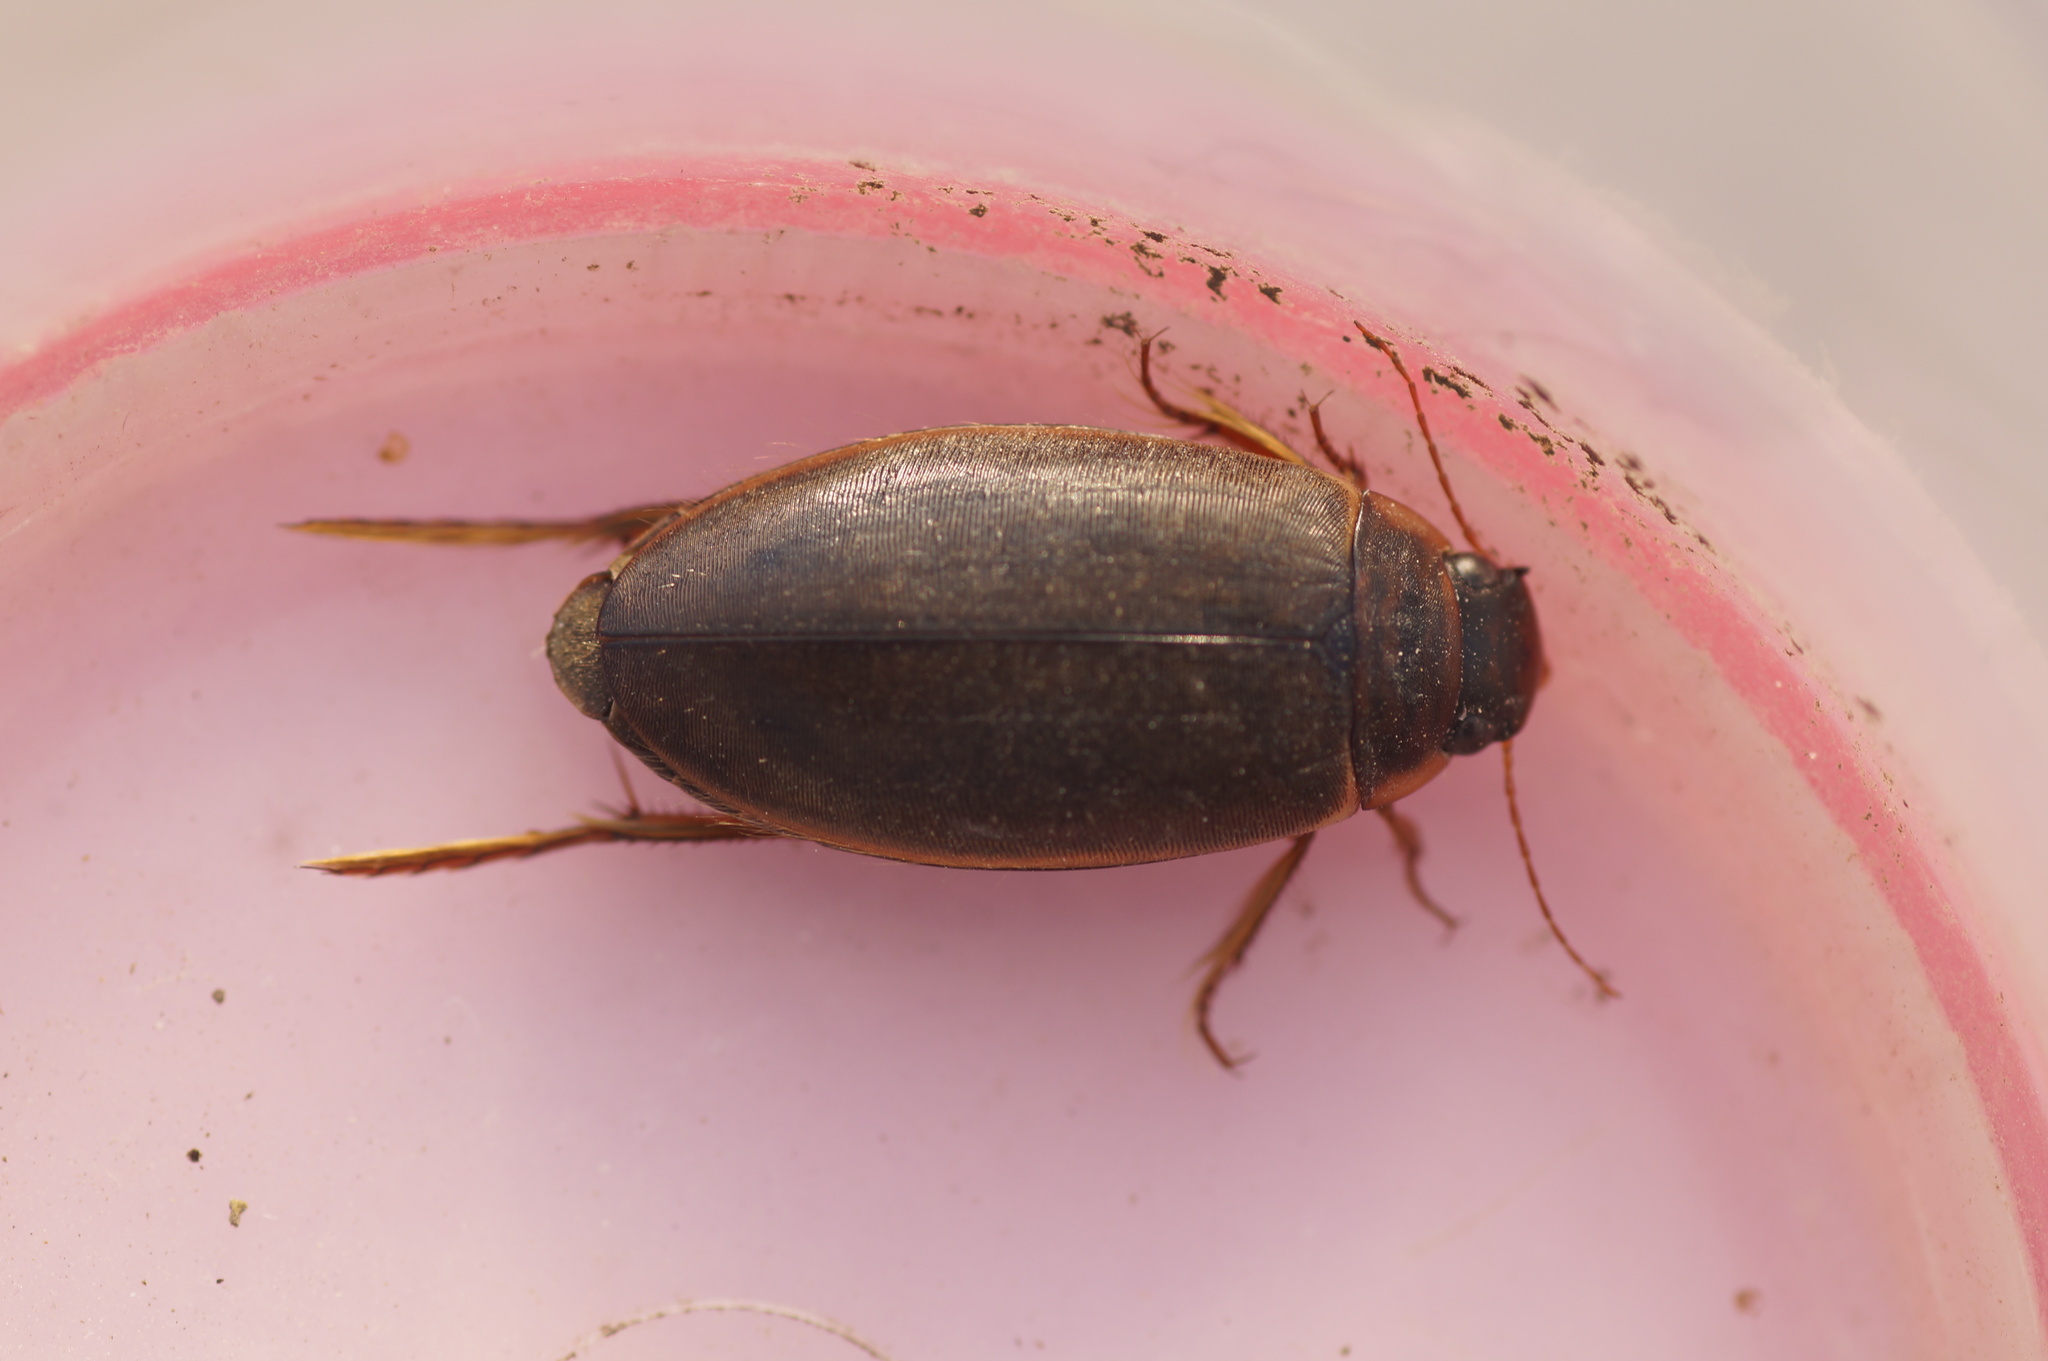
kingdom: Animalia
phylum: Arthropoda
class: Insecta
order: Coleoptera
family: Dytiscidae
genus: Colymbetes
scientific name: Colymbetes
